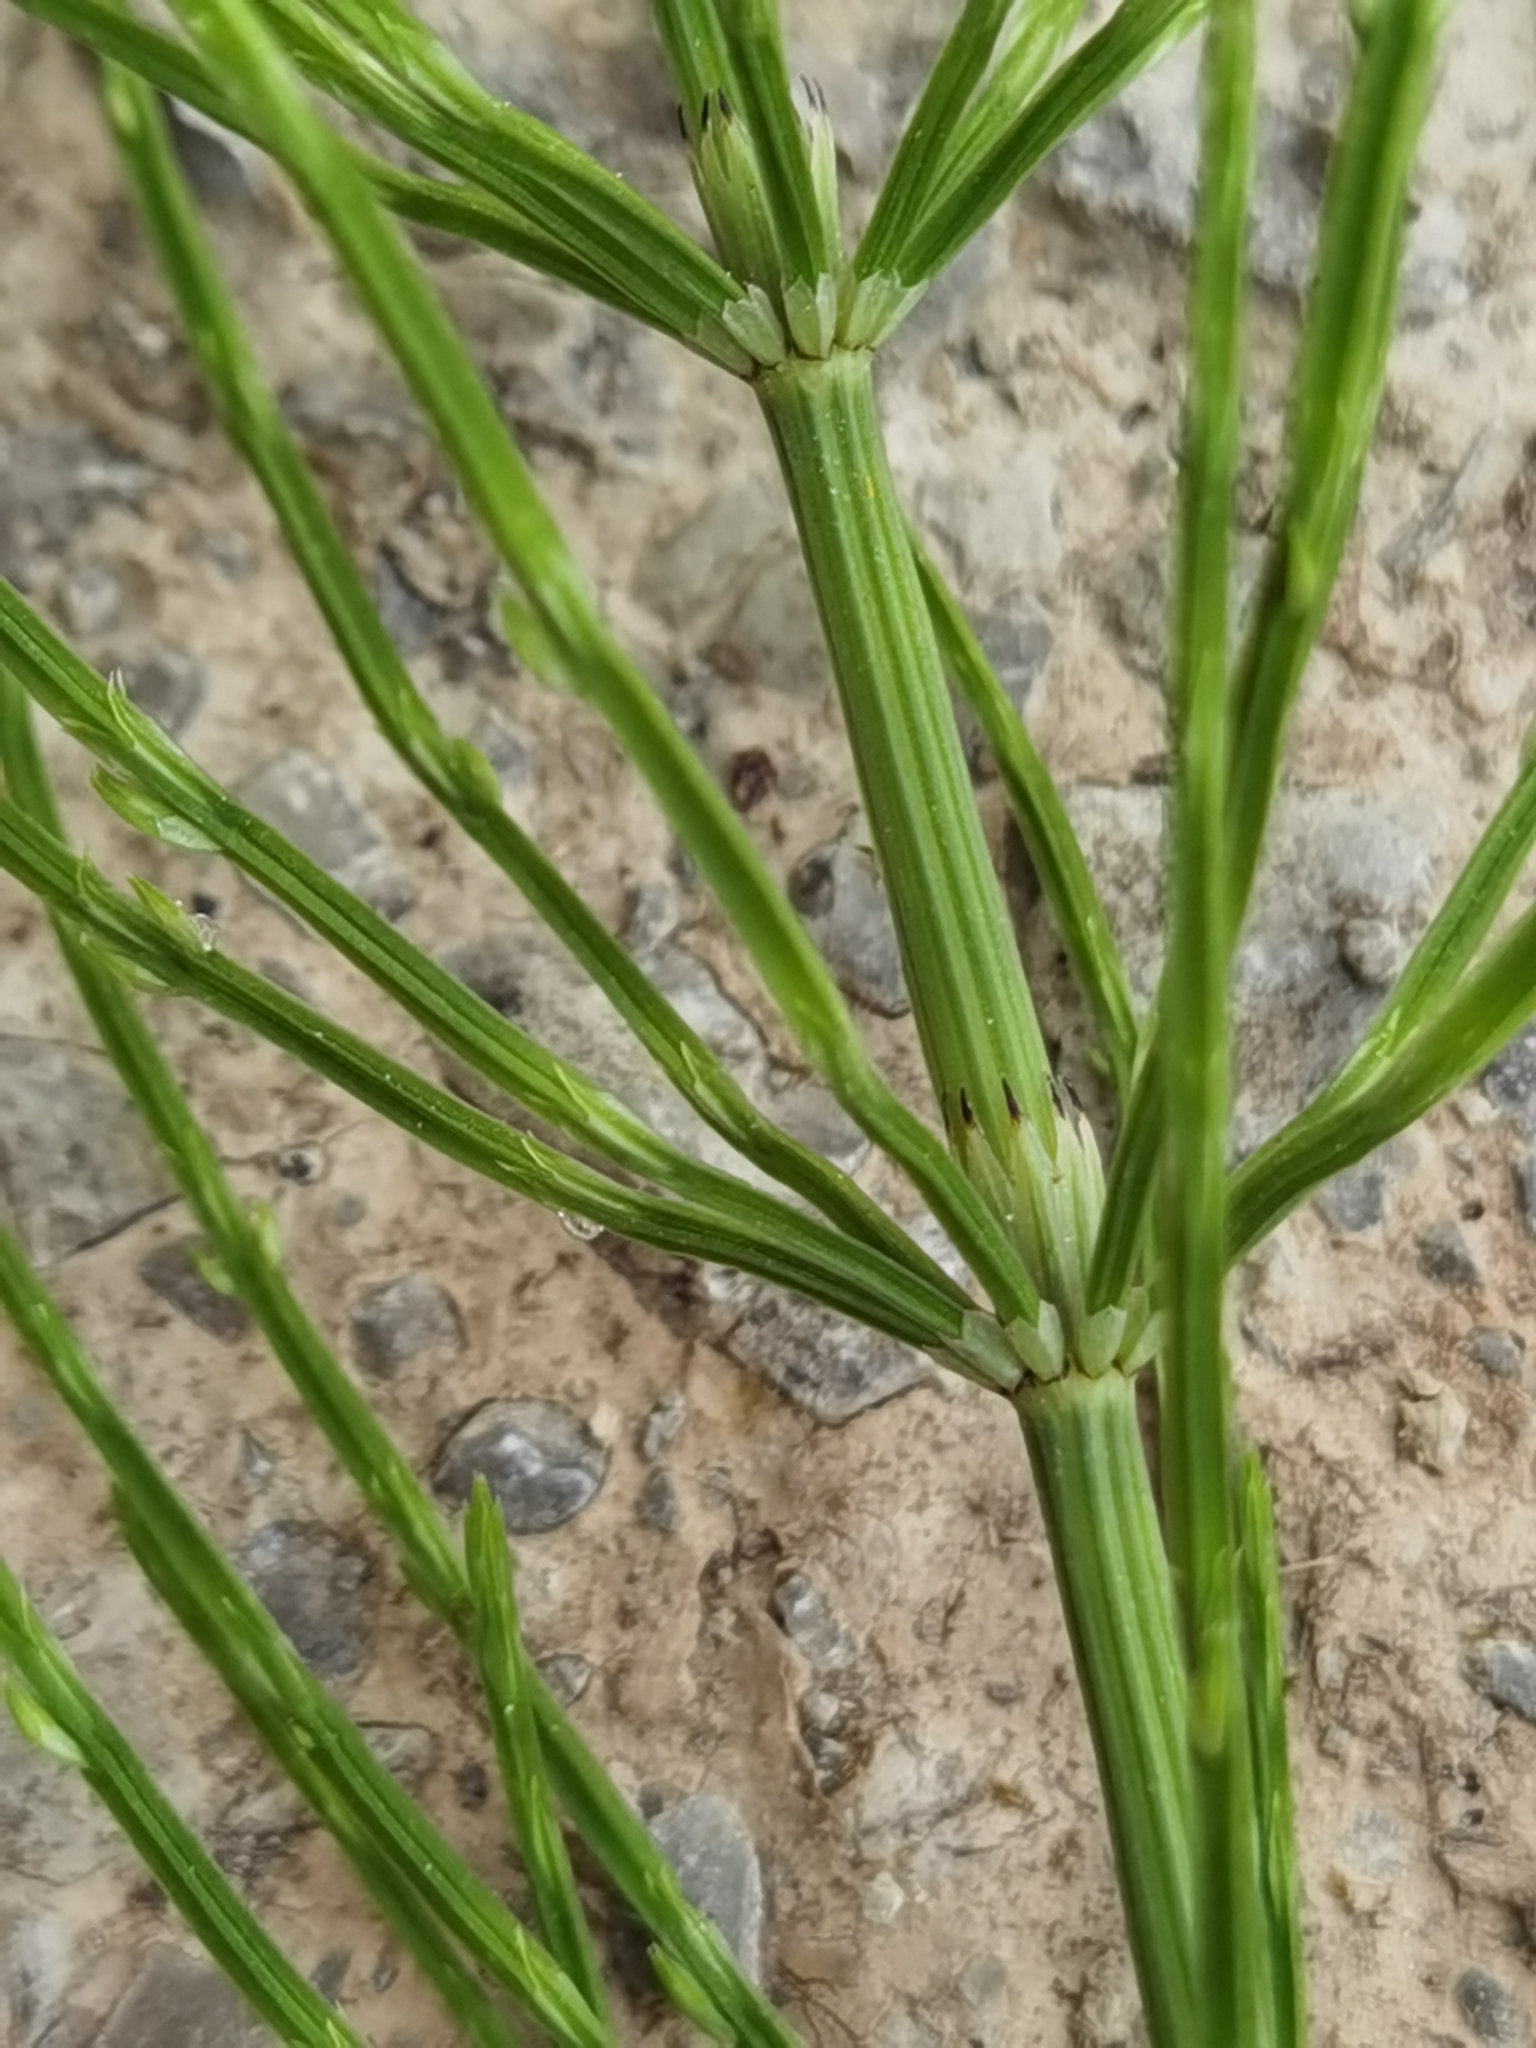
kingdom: Plantae
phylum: Tracheophyta
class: Polypodiopsida
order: Equisetales
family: Equisetaceae
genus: Equisetum
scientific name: Equisetum arvense
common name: Field horsetail
